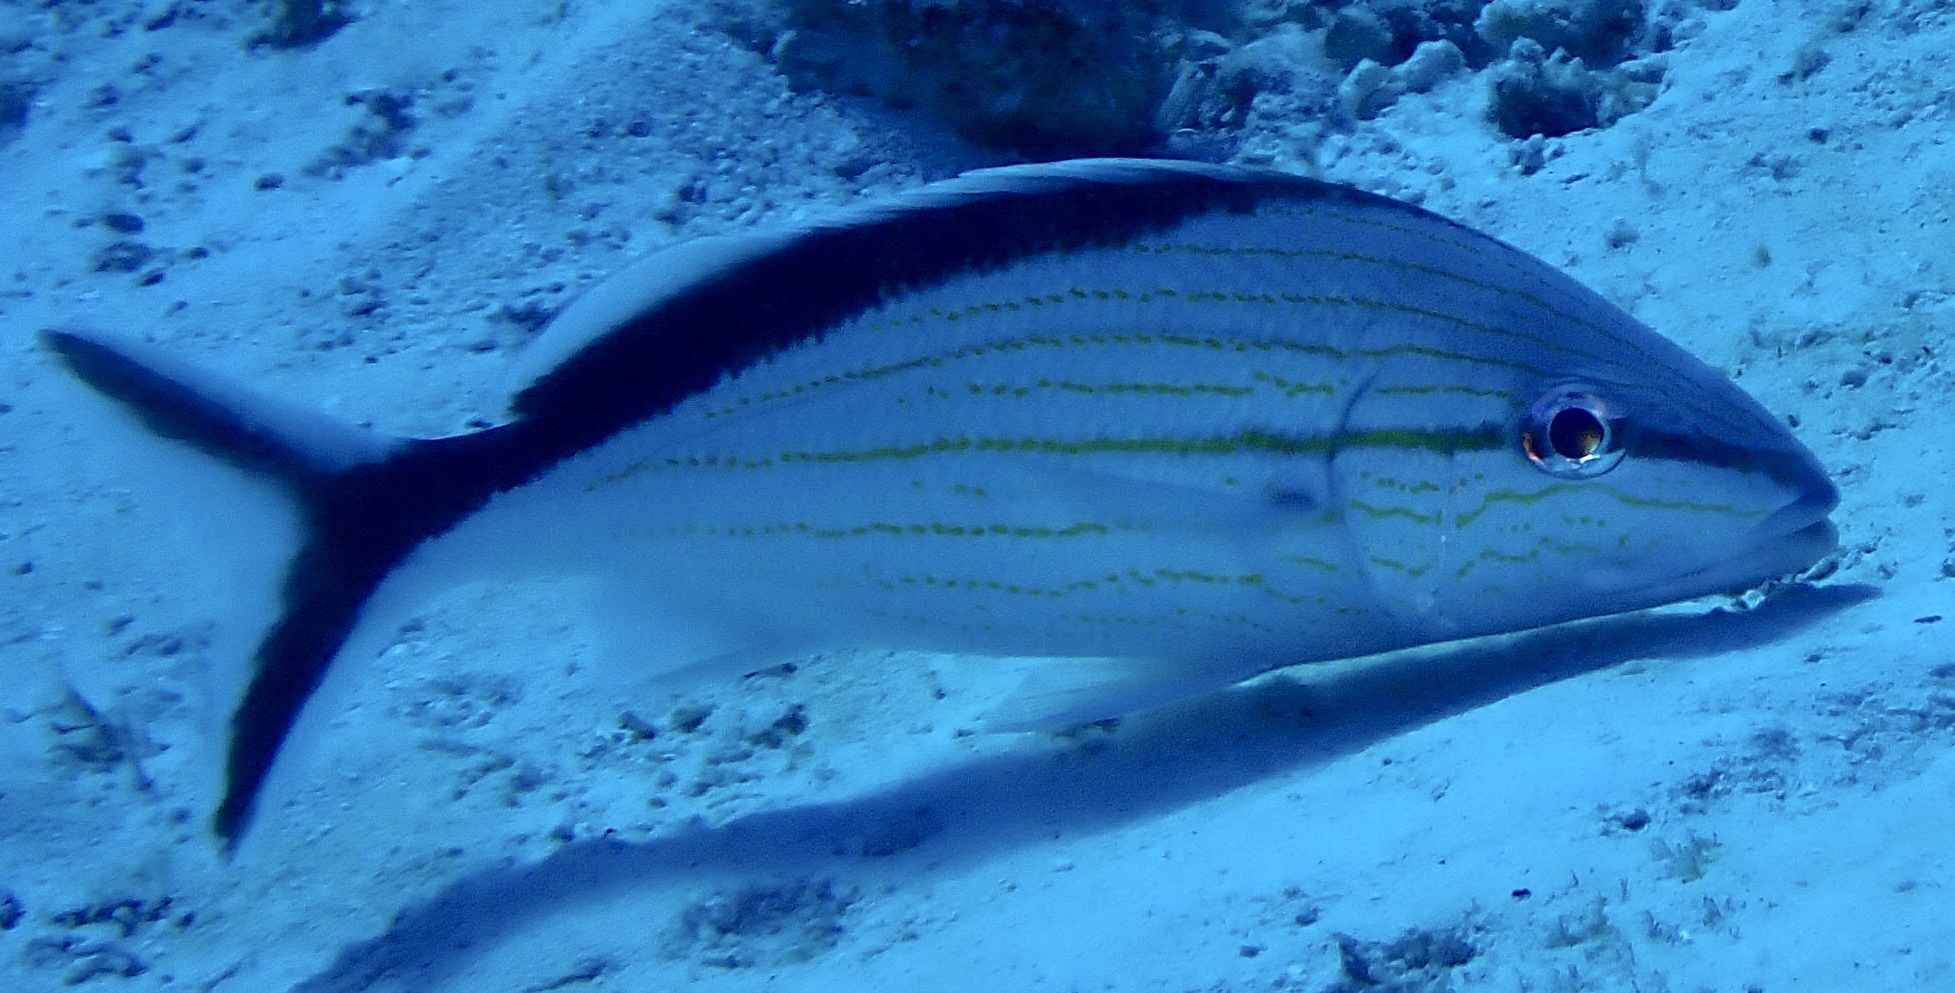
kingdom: Animalia
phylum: Chordata
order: Perciformes
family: Haemulidae
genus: Haemulon
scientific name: Haemulon melanurum
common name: Cottonwick
